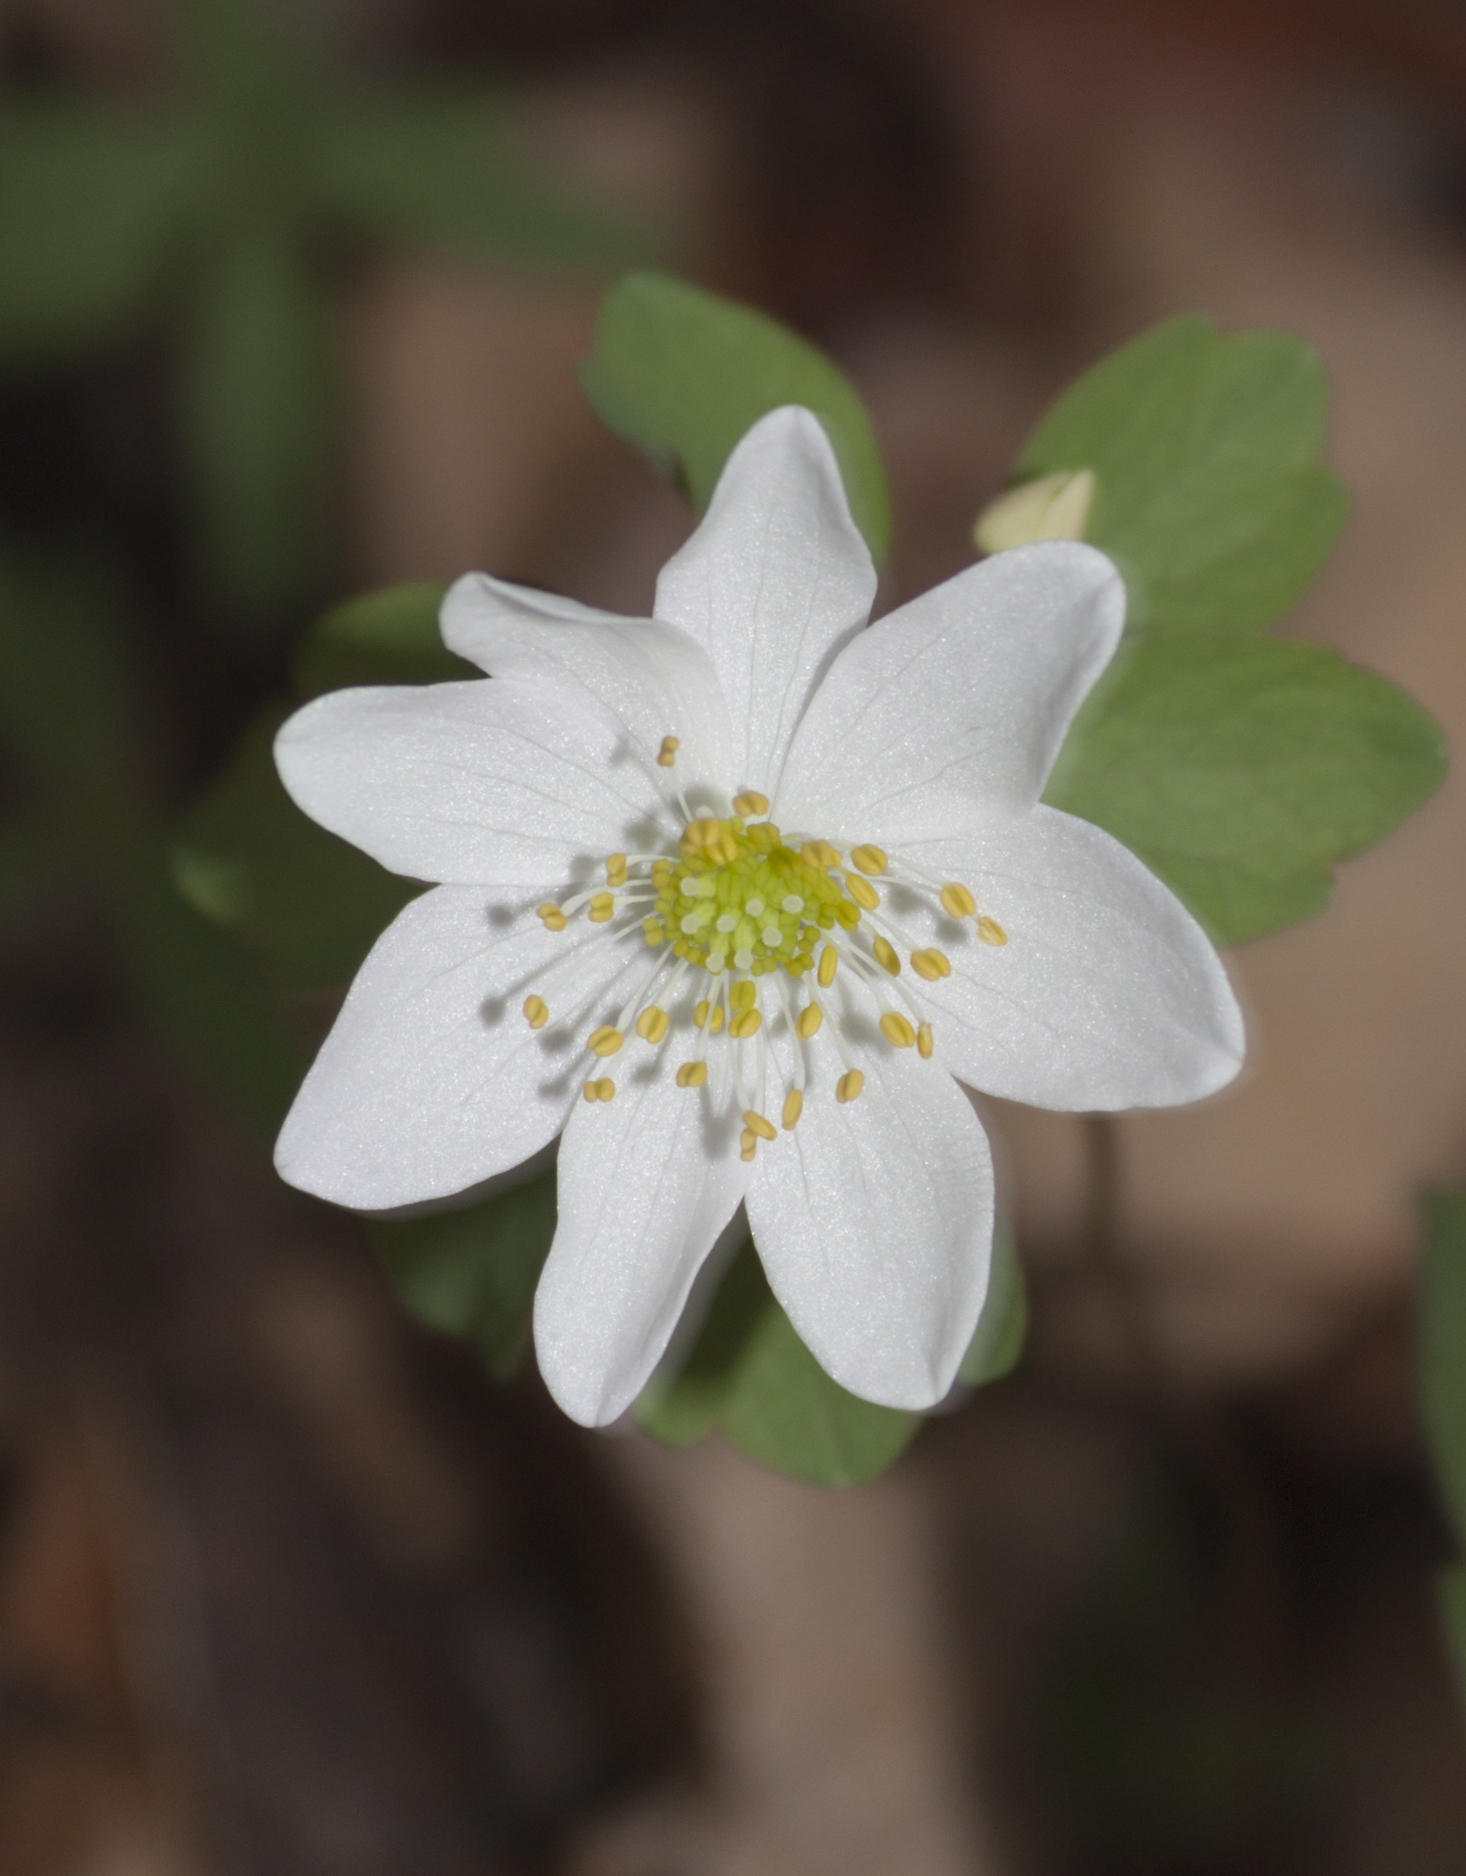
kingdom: Plantae
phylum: Tracheophyta
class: Magnoliopsida
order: Ranunculales
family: Ranunculaceae
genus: Thalictrum
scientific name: Thalictrum thalictroides
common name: Rue-anemone
